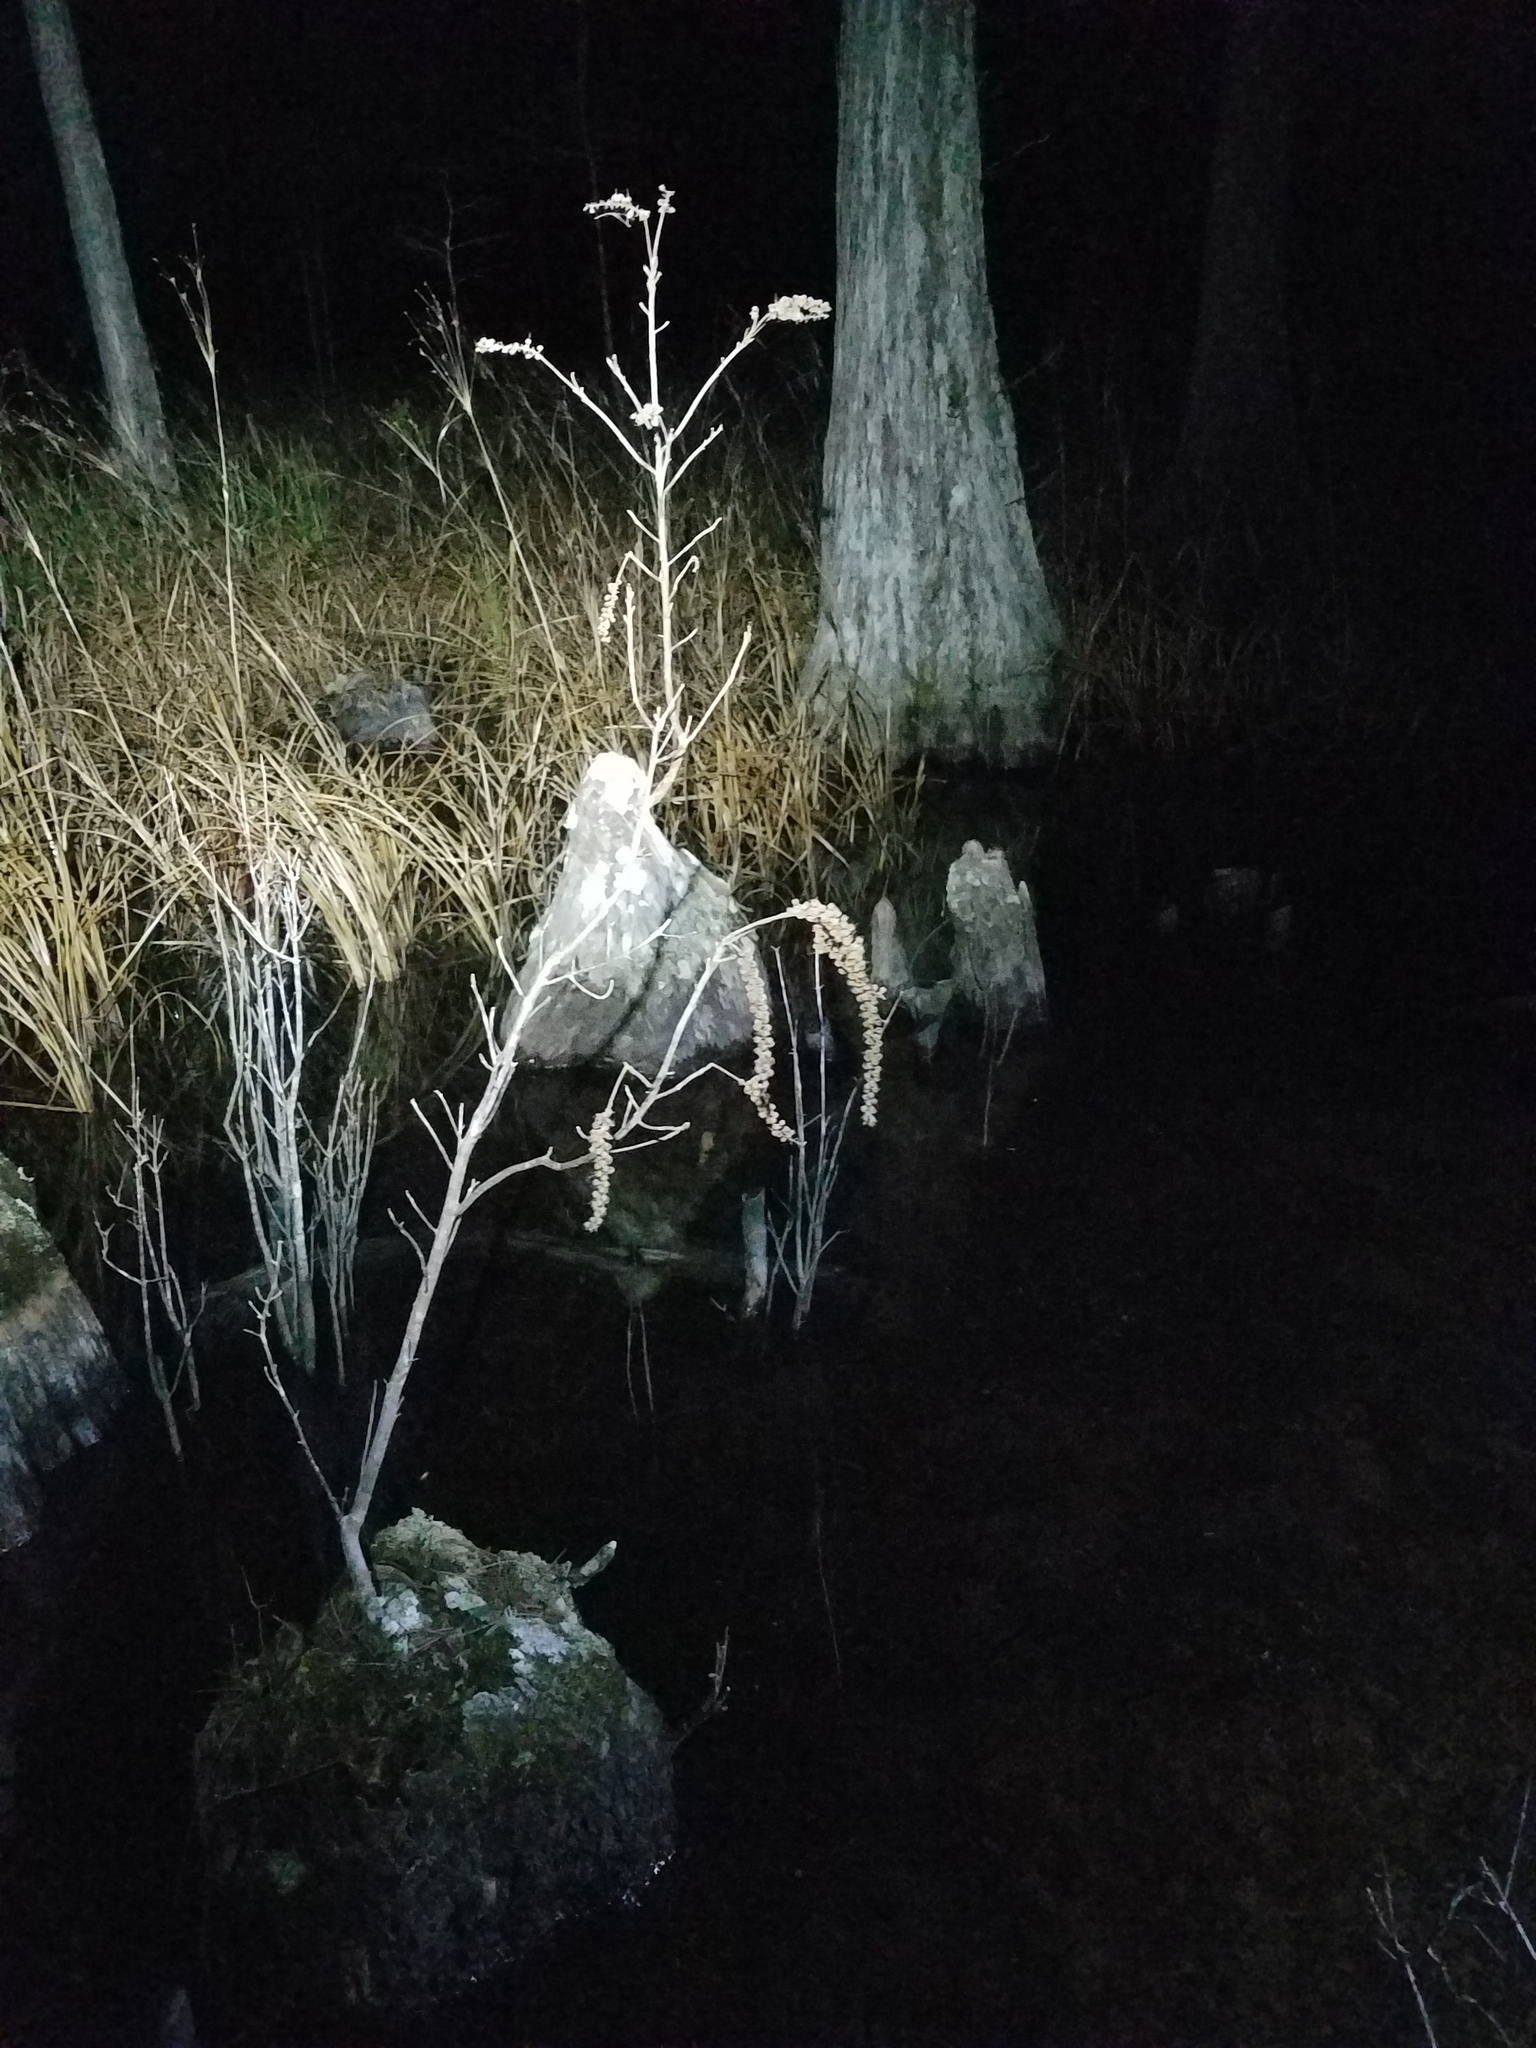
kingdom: Plantae
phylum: Tracheophyta
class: Magnoliopsida
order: Ericales
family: Ericaceae
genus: Eubotrys
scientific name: Eubotrys racemosa
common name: Fetterbush
